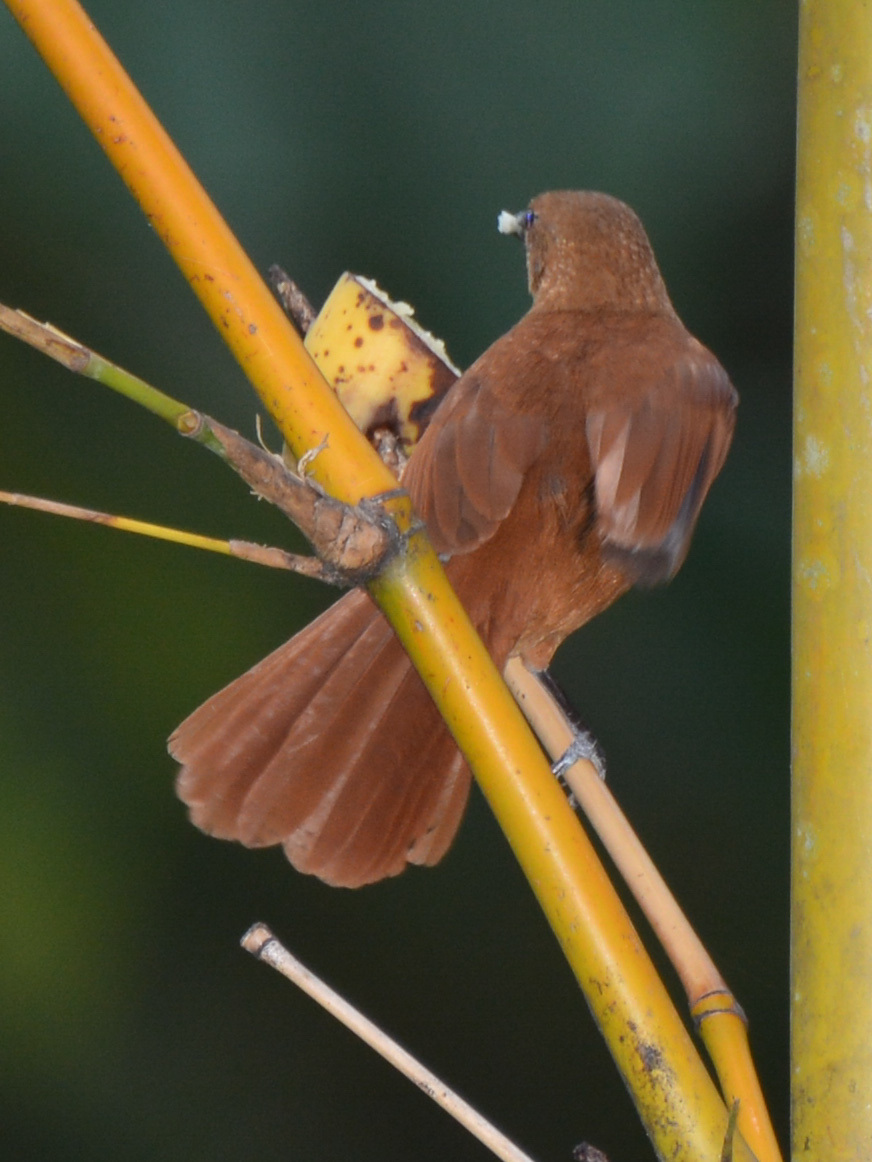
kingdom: Animalia
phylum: Chordata
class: Aves
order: Passeriformes
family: Thraupidae
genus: Tachyphonus
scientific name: Tachyphonus rufus
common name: White-lined tanager
